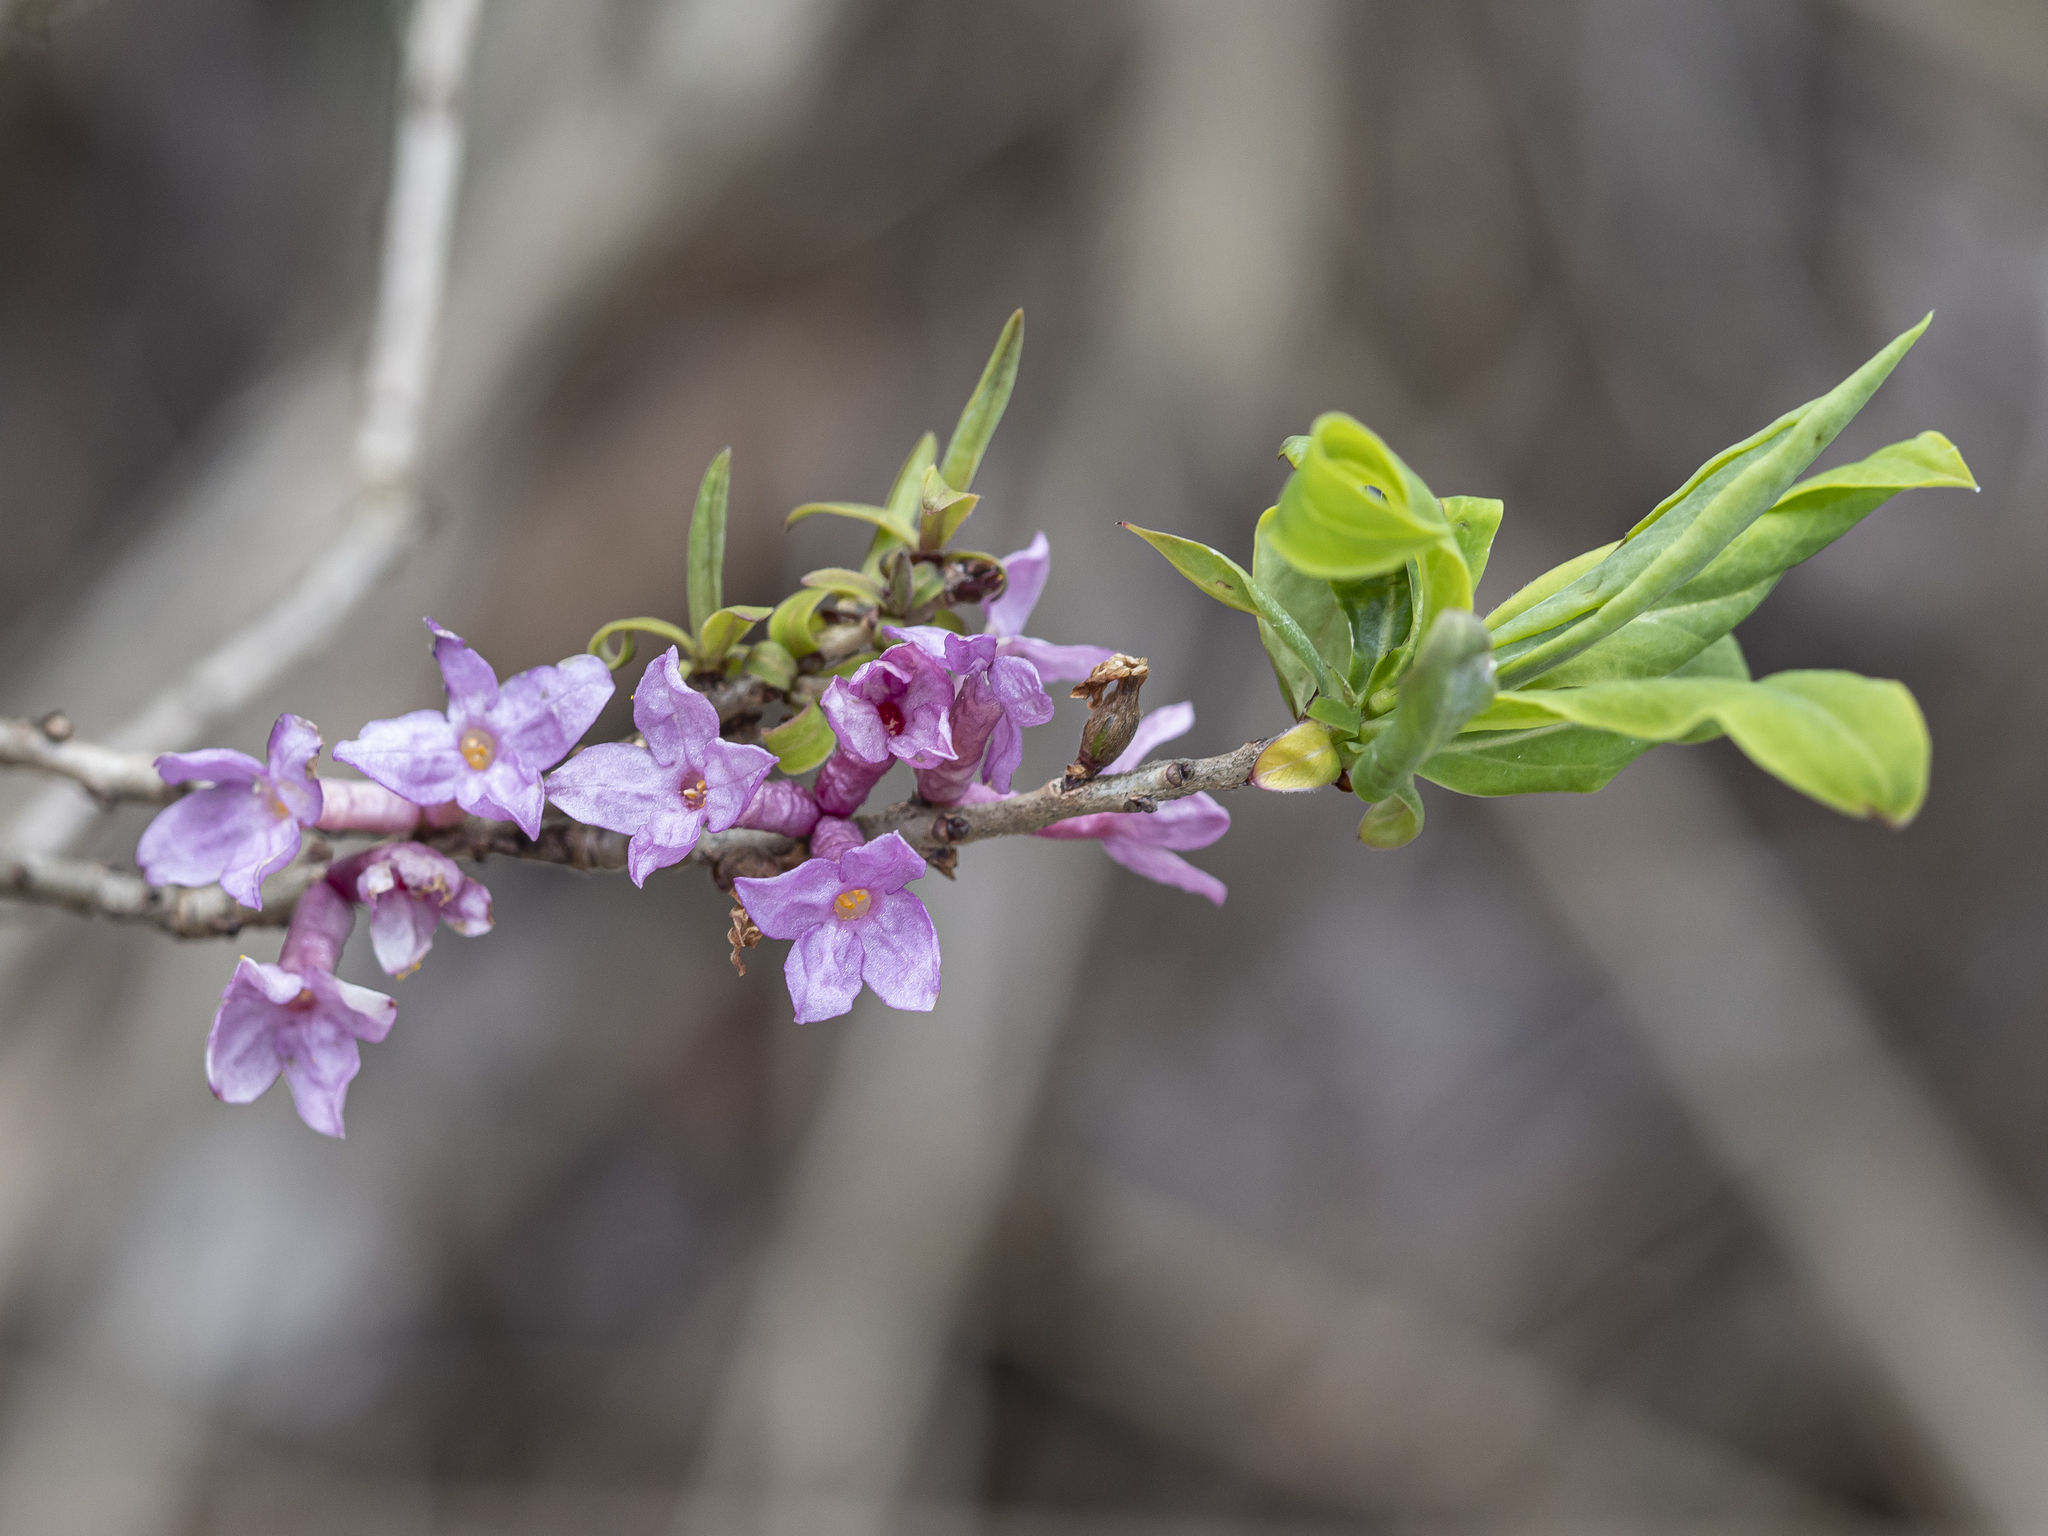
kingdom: Plantae
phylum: Tracheophyta
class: Magnoliopsida
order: Malvales
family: Thymelaeaceae
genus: Daphne
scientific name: Daphne mezereum
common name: Mezereon
